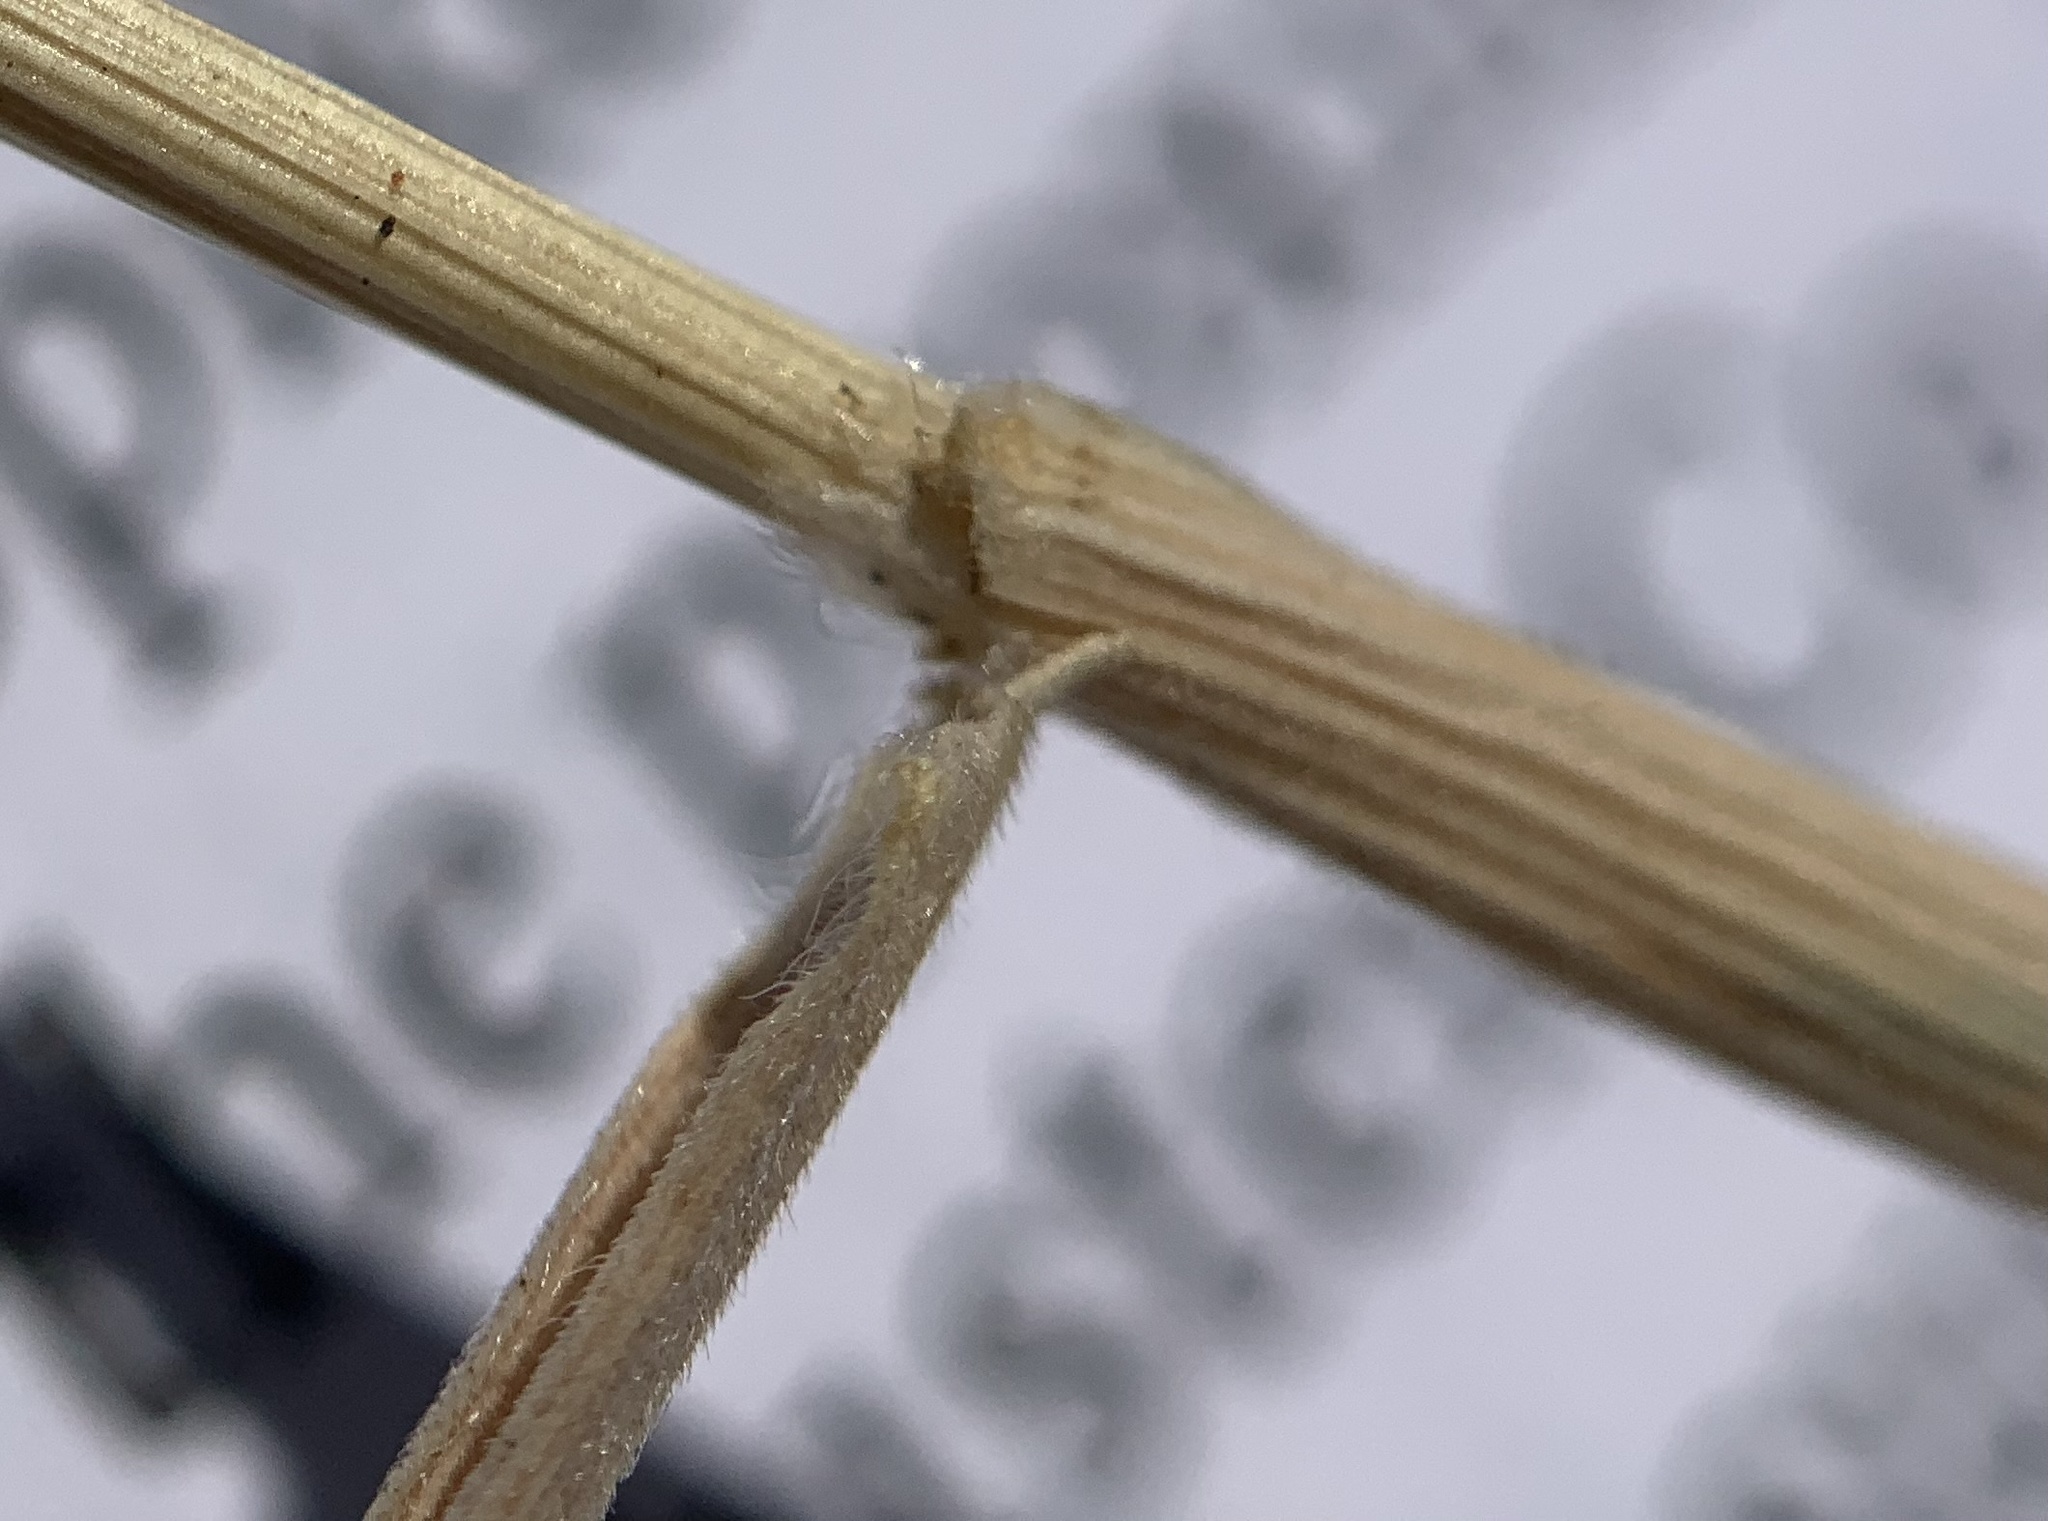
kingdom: Plantae
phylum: Tracheophyta
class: Liliopsida
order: Poales
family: Poaceae
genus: Koeleria
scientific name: Koeleria macrantha
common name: Crested hair-grass
